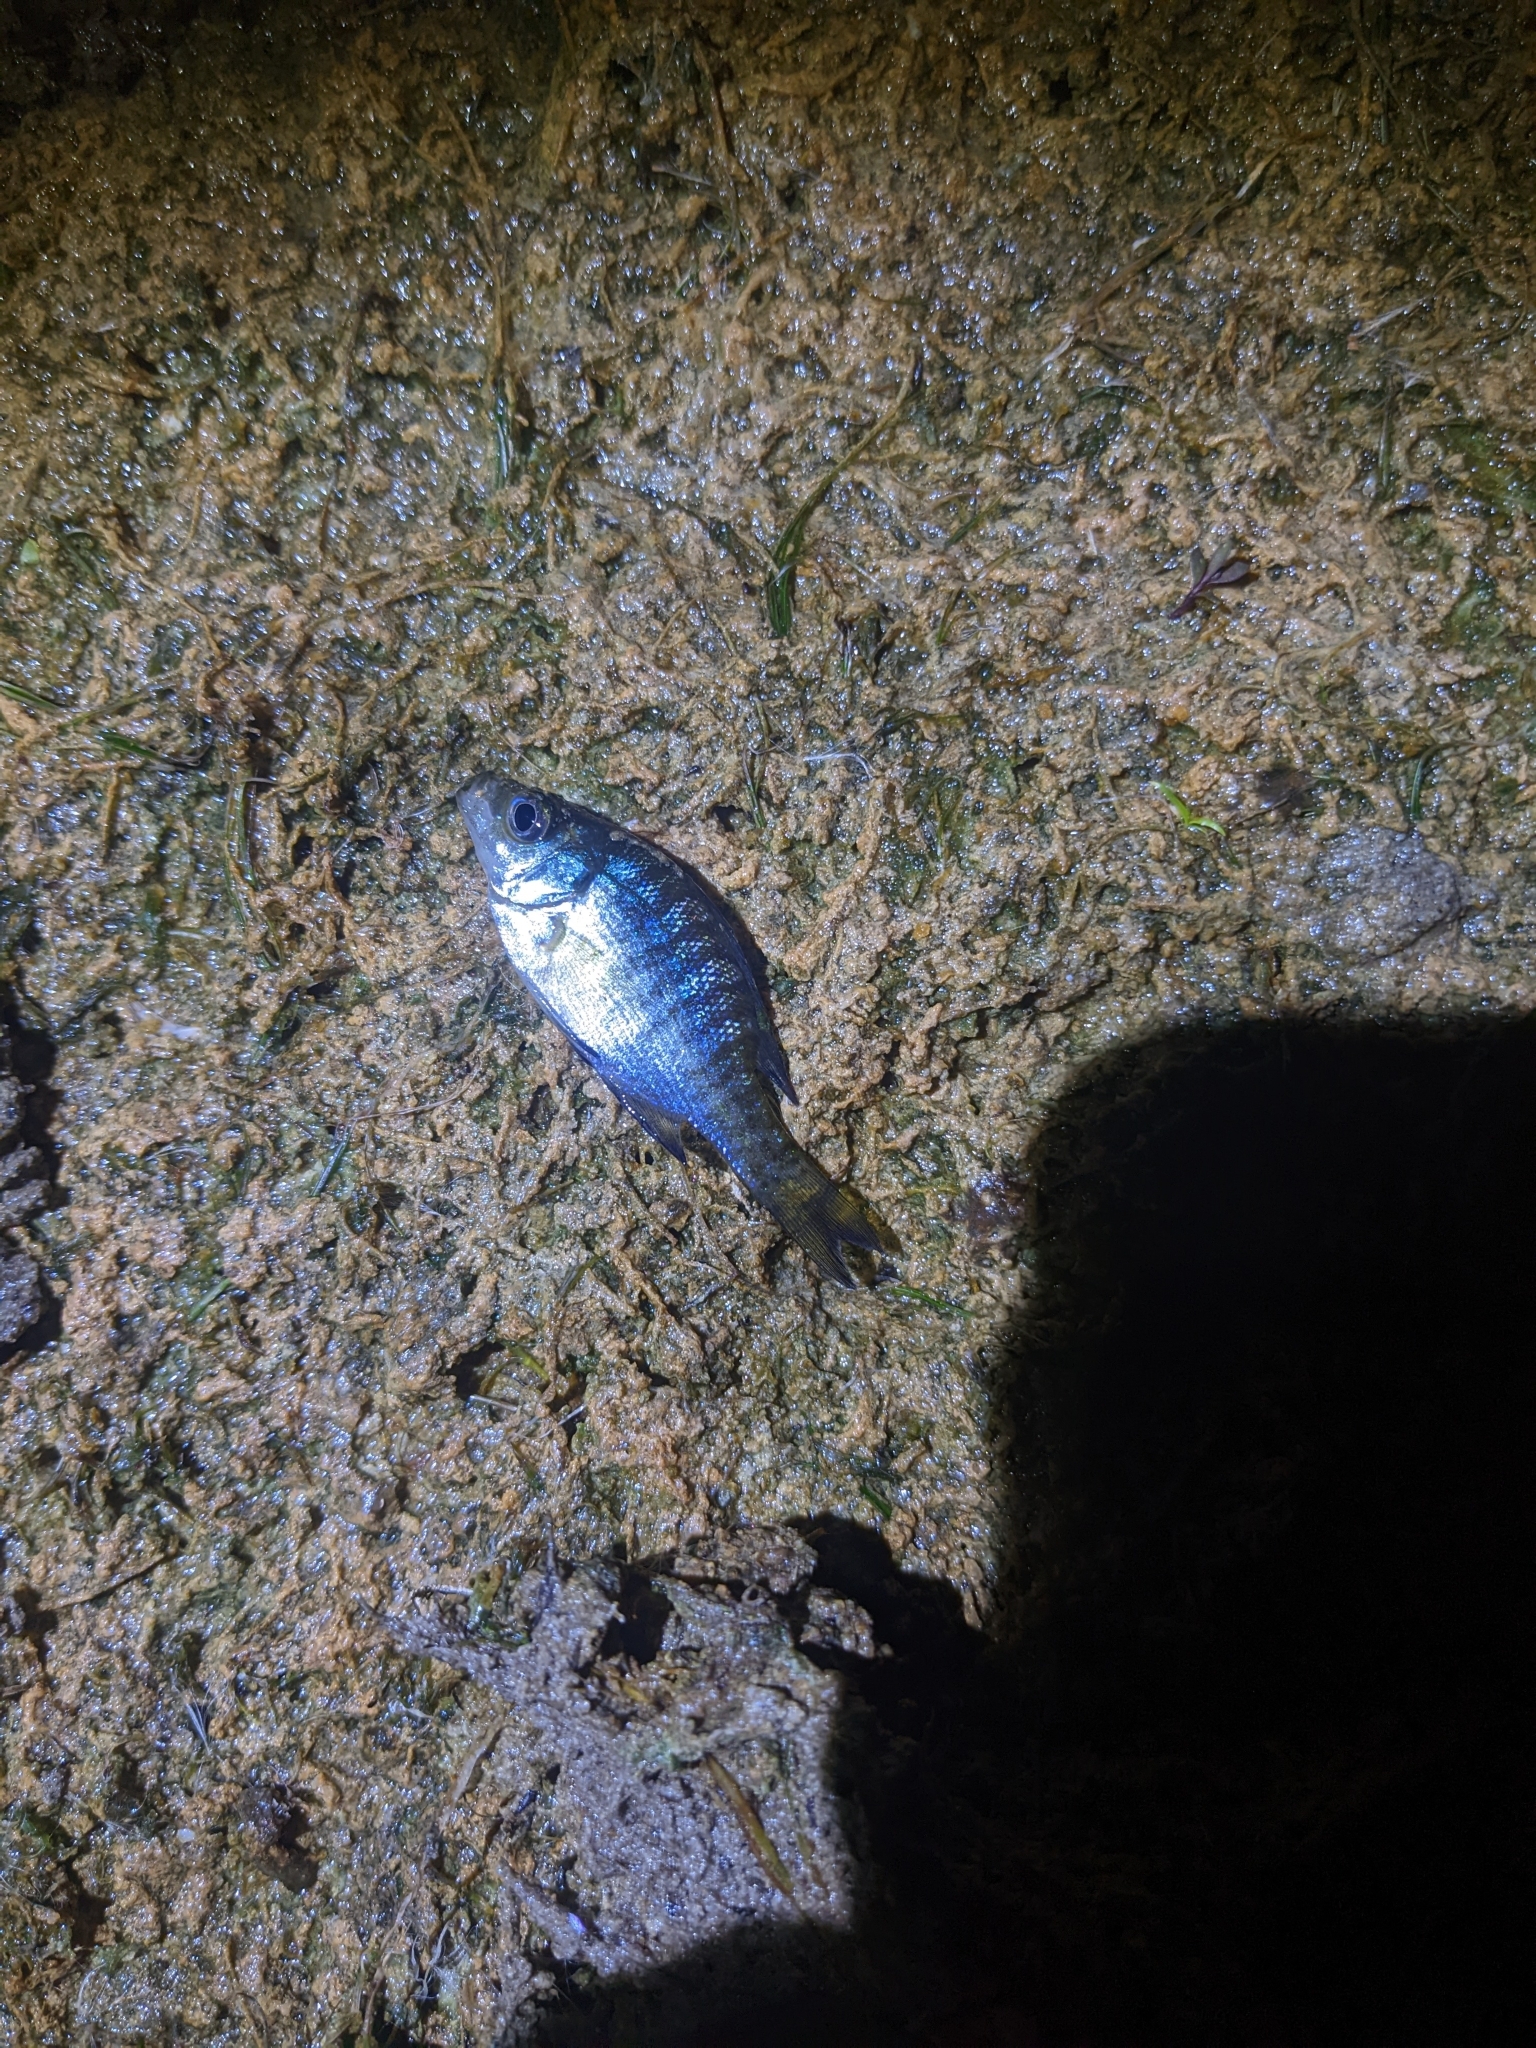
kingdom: Animalia
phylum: Chordata
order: Perciformes
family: Centrarchidae
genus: Lepomis
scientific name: Lepomis macrochirus
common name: Bluegill
